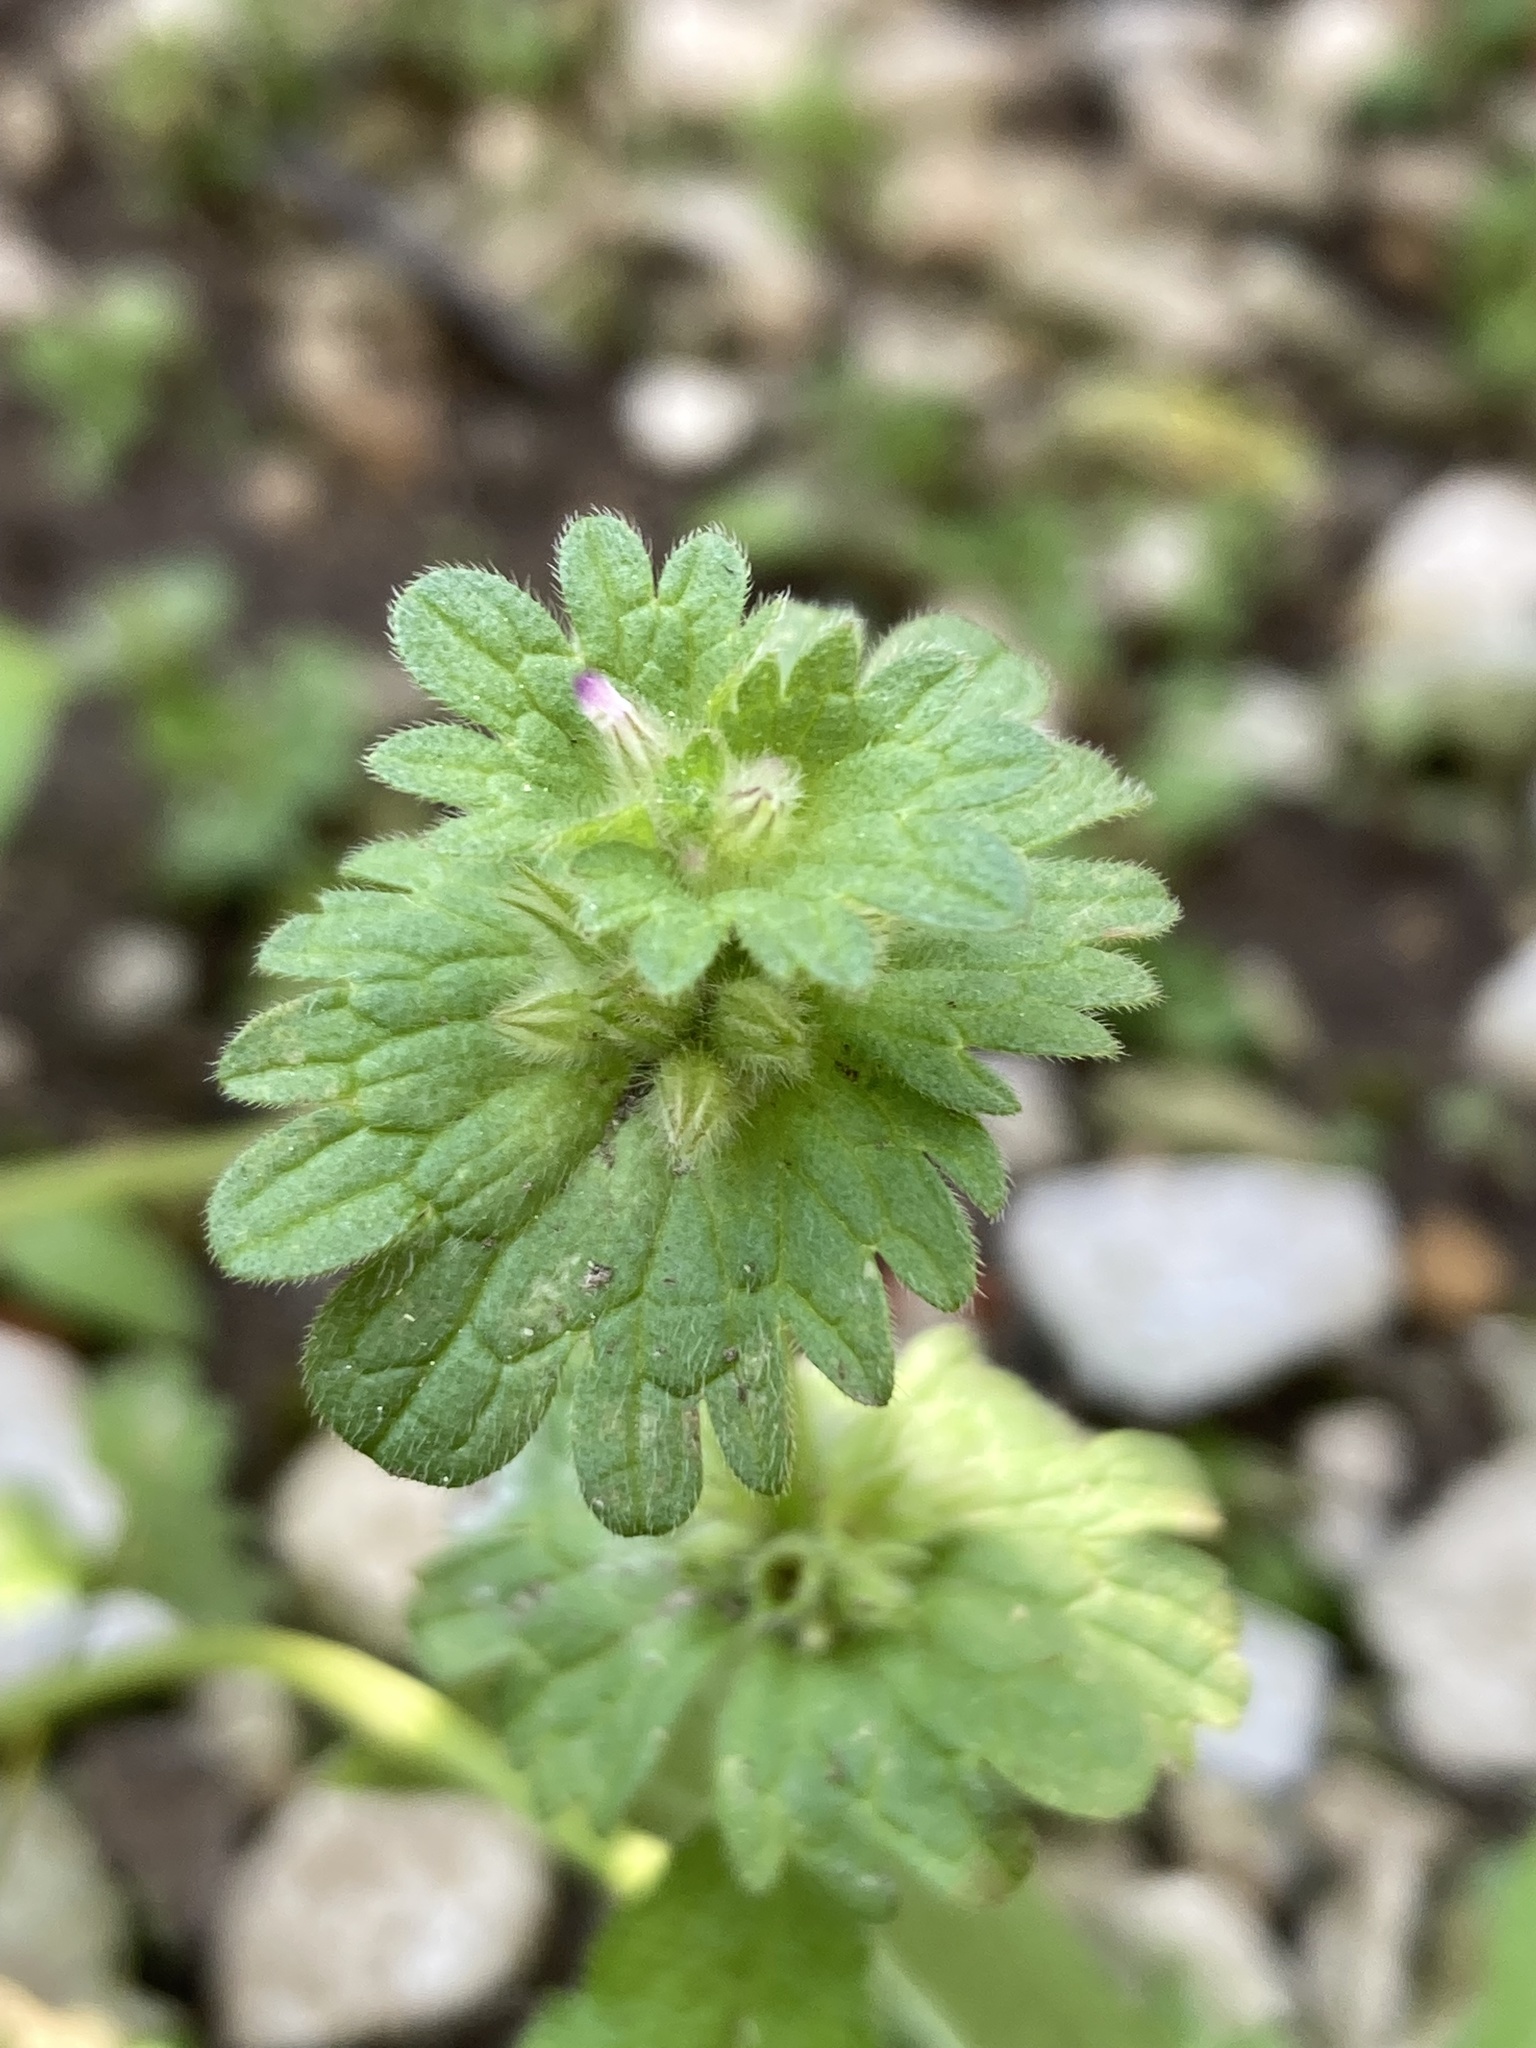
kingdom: Plantae
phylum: Tracheophyta
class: Magnoliopsida
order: Lamiales
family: Lamiaceae
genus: Lamium
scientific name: Lamium amplexicaule
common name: Henbit dead-nettle
